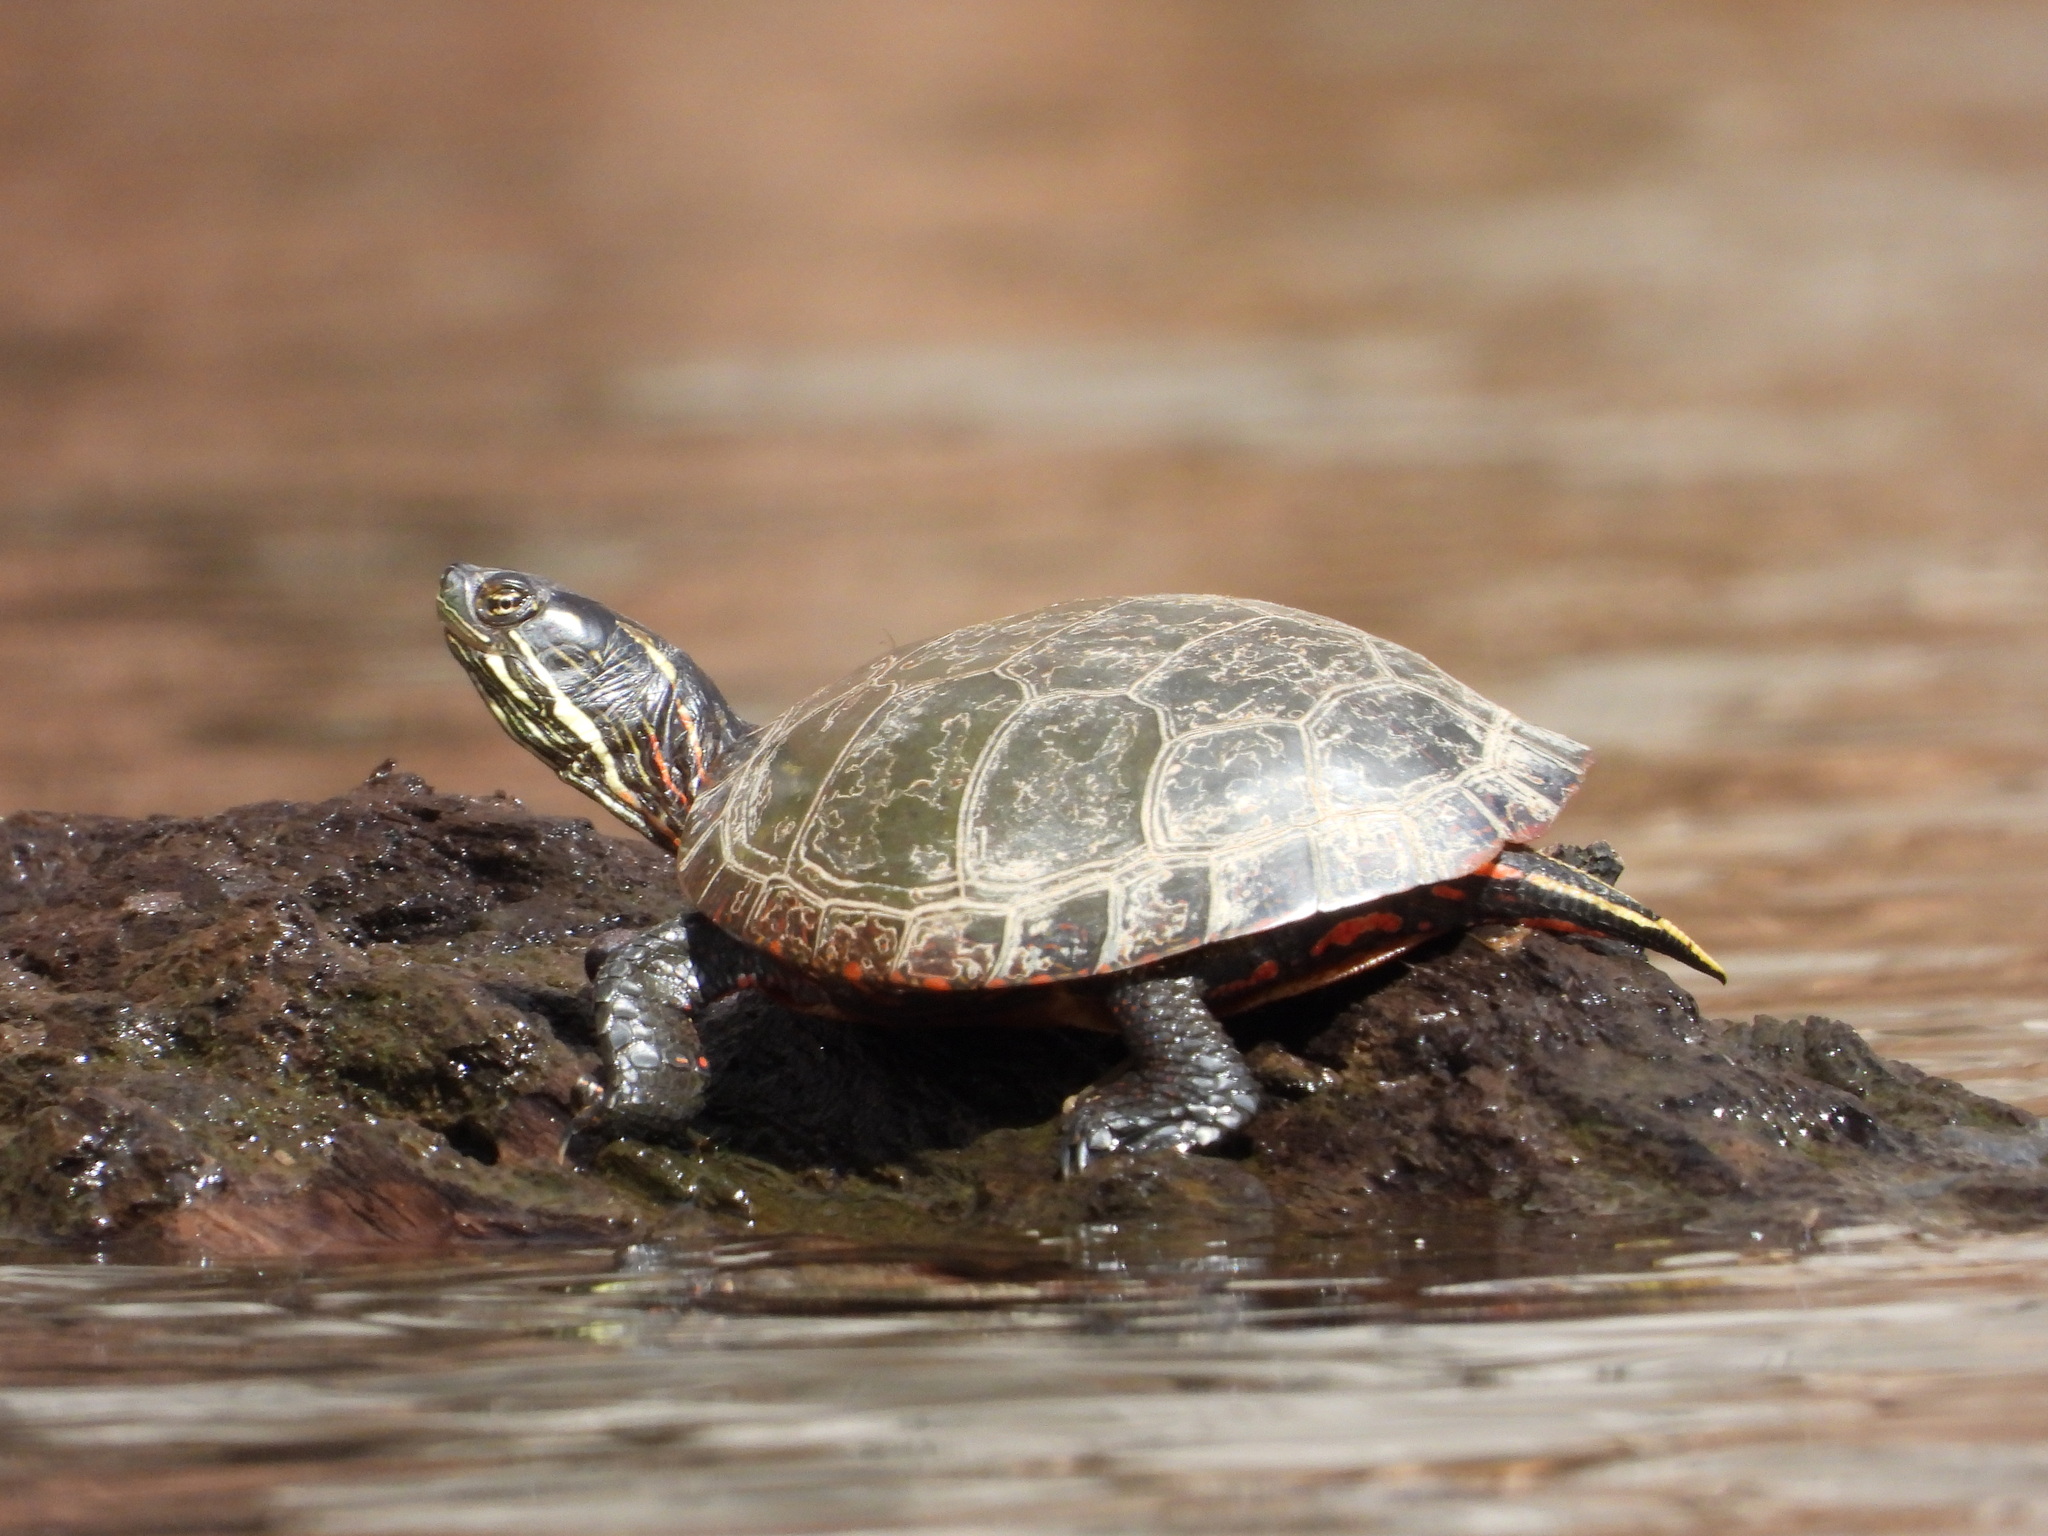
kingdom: Animalia
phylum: Chordata
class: Testudines
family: Emydidae
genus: Chrysemys
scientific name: Chrysemys picta
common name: Painted turtle
